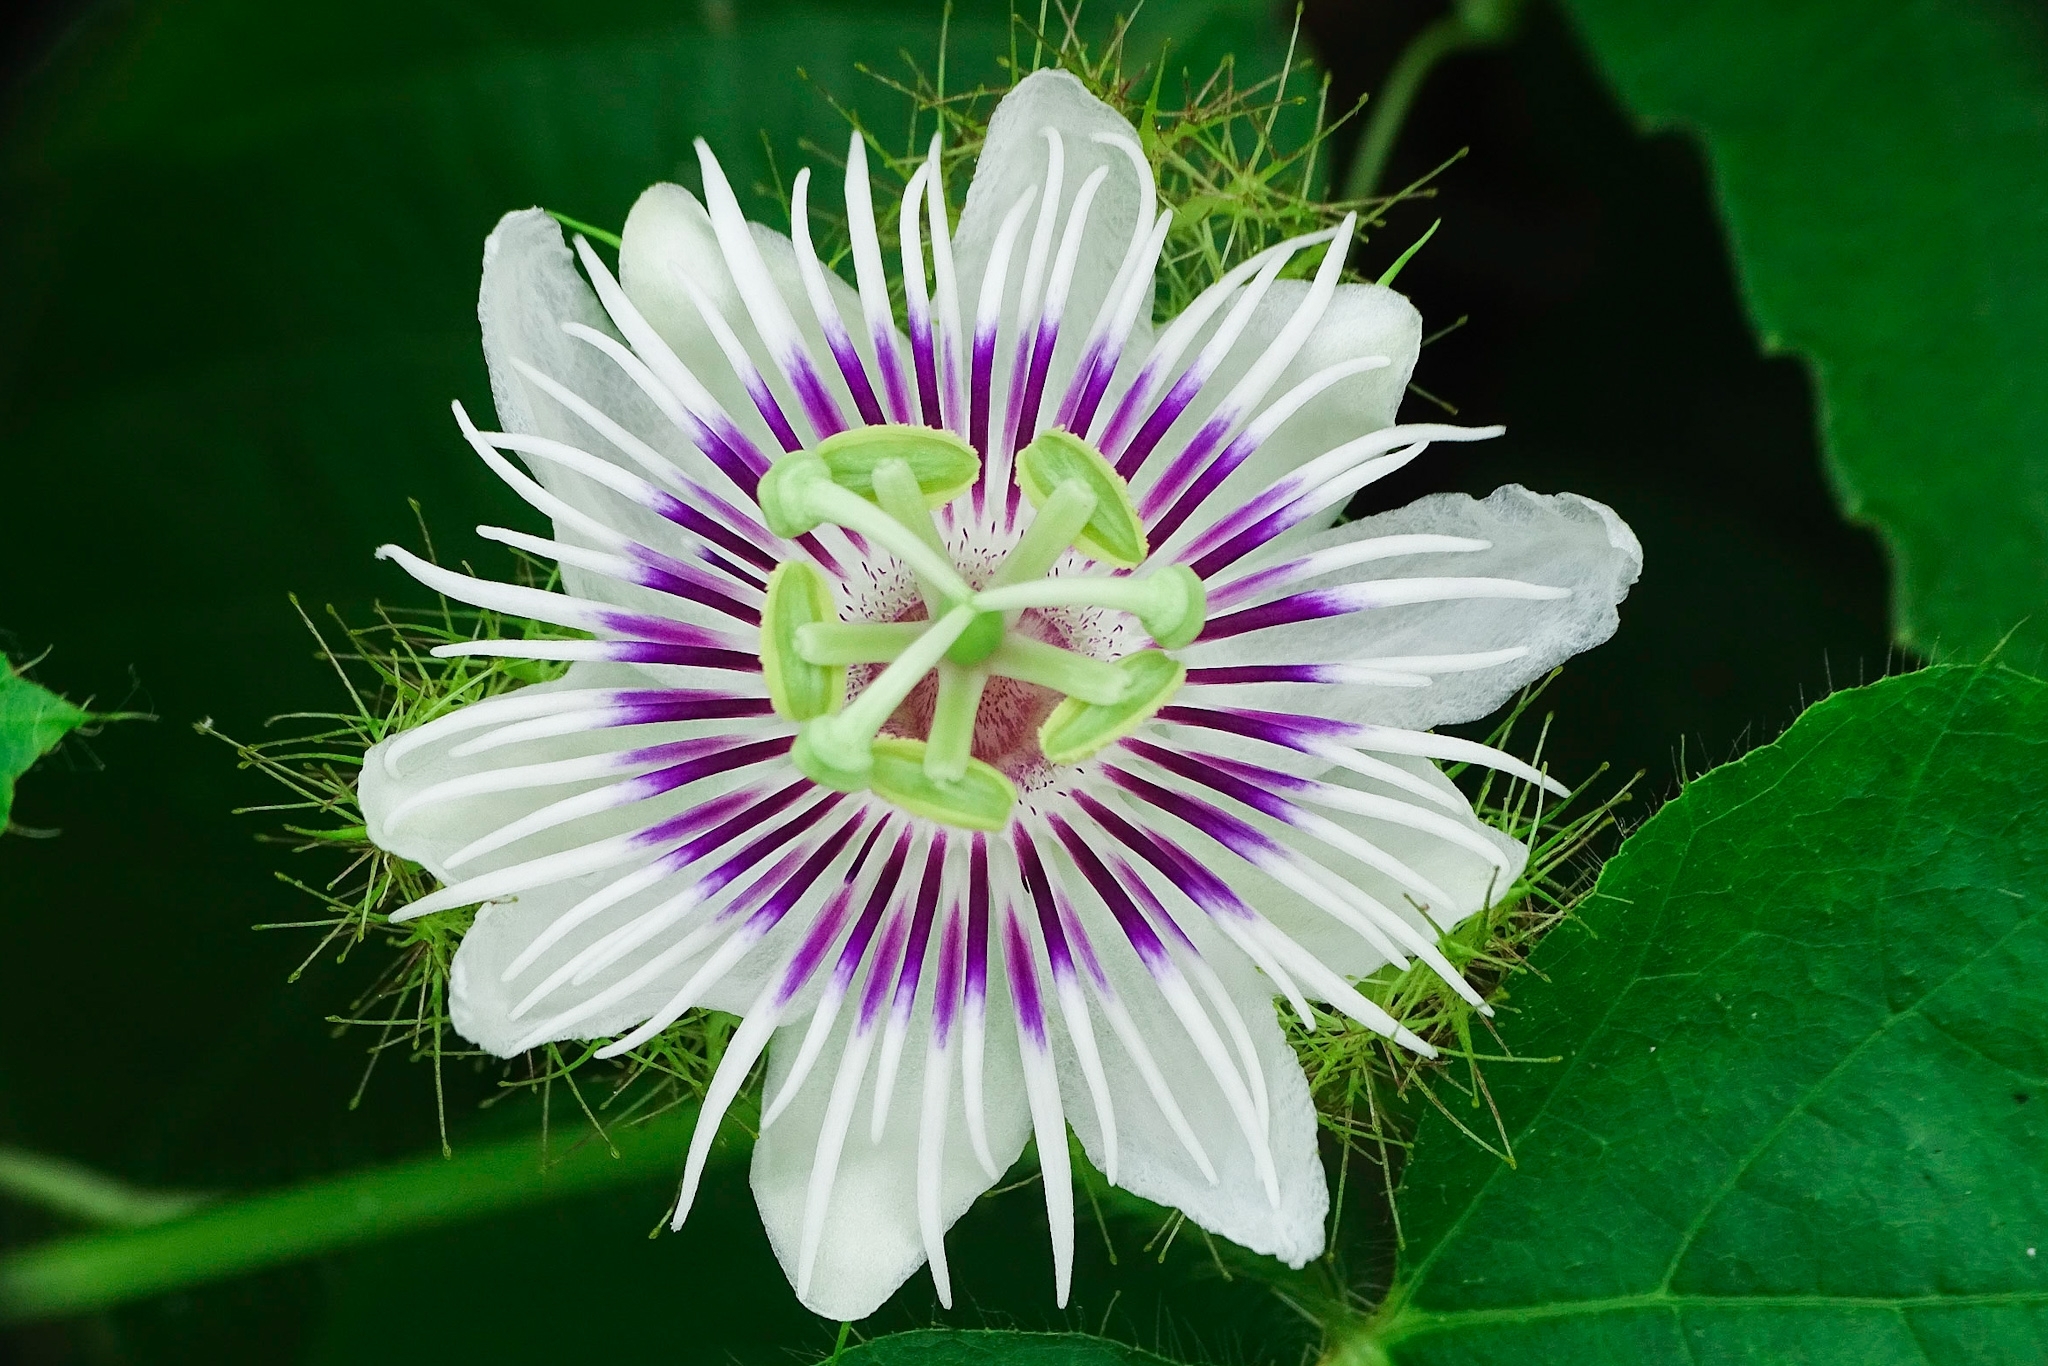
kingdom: Plantae
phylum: Tracheophyta
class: Magnoliopsida
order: Malpighiales
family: Passifloraceae
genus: Passiflora
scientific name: Passiflora foetida
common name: Fetid passionflower
